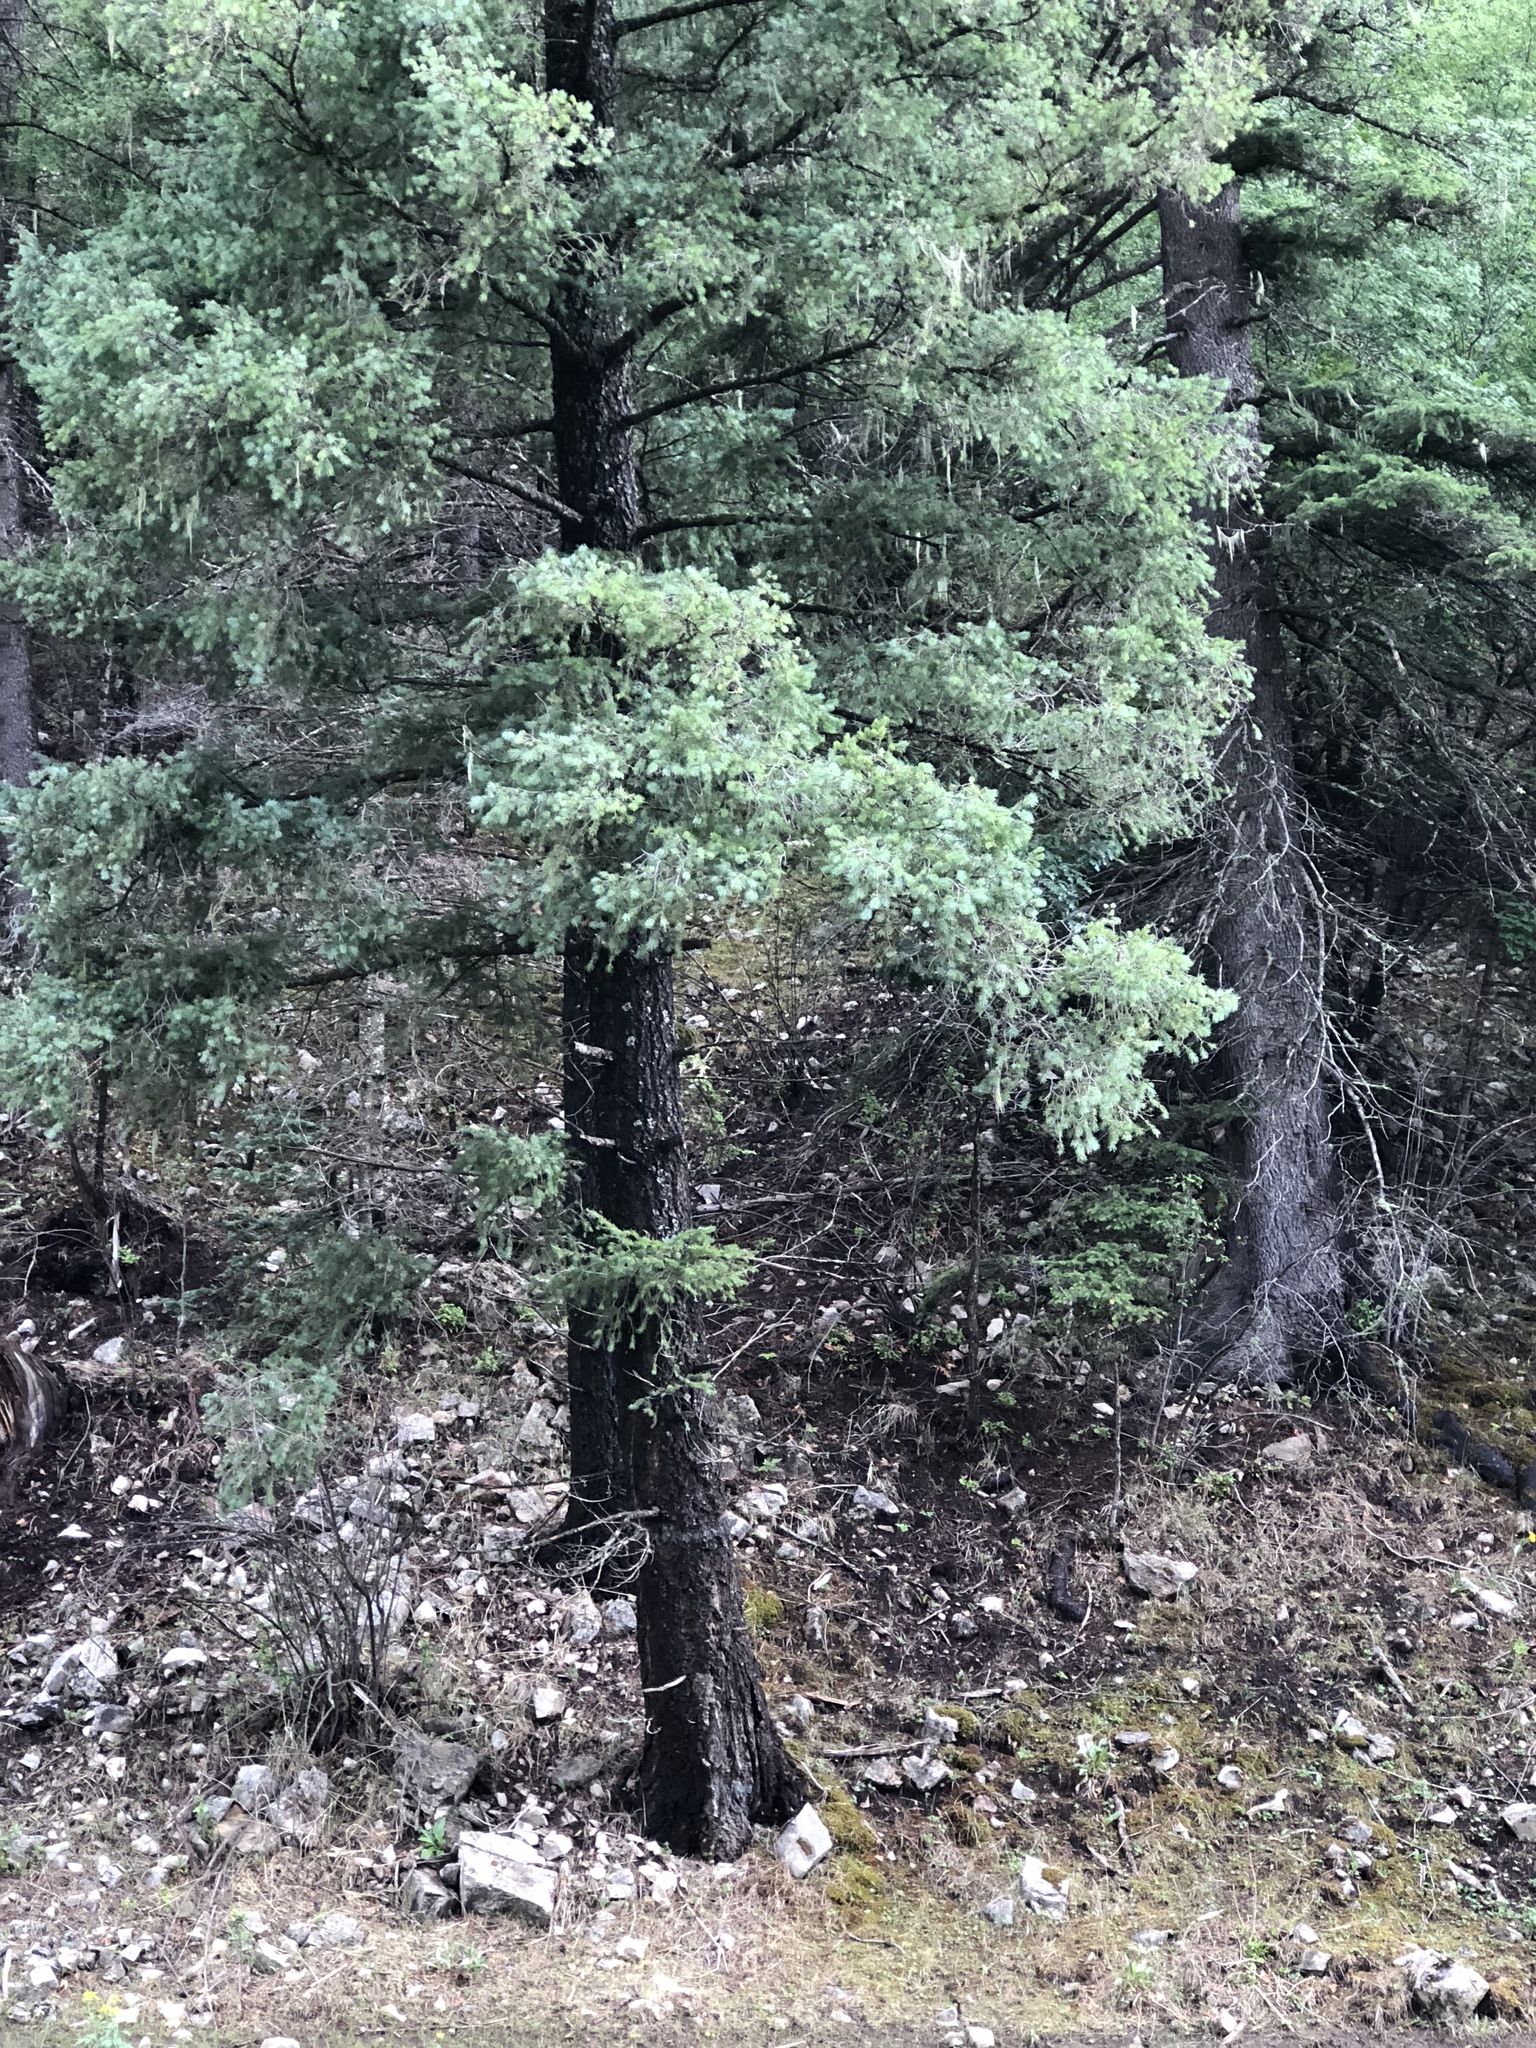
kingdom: Plantae
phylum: Tracheophyta
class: Pinopsida
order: Pinales
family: Pinaceae
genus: Pseudotsuga
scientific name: Pseudotsuga menziesii
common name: Douglas fir
